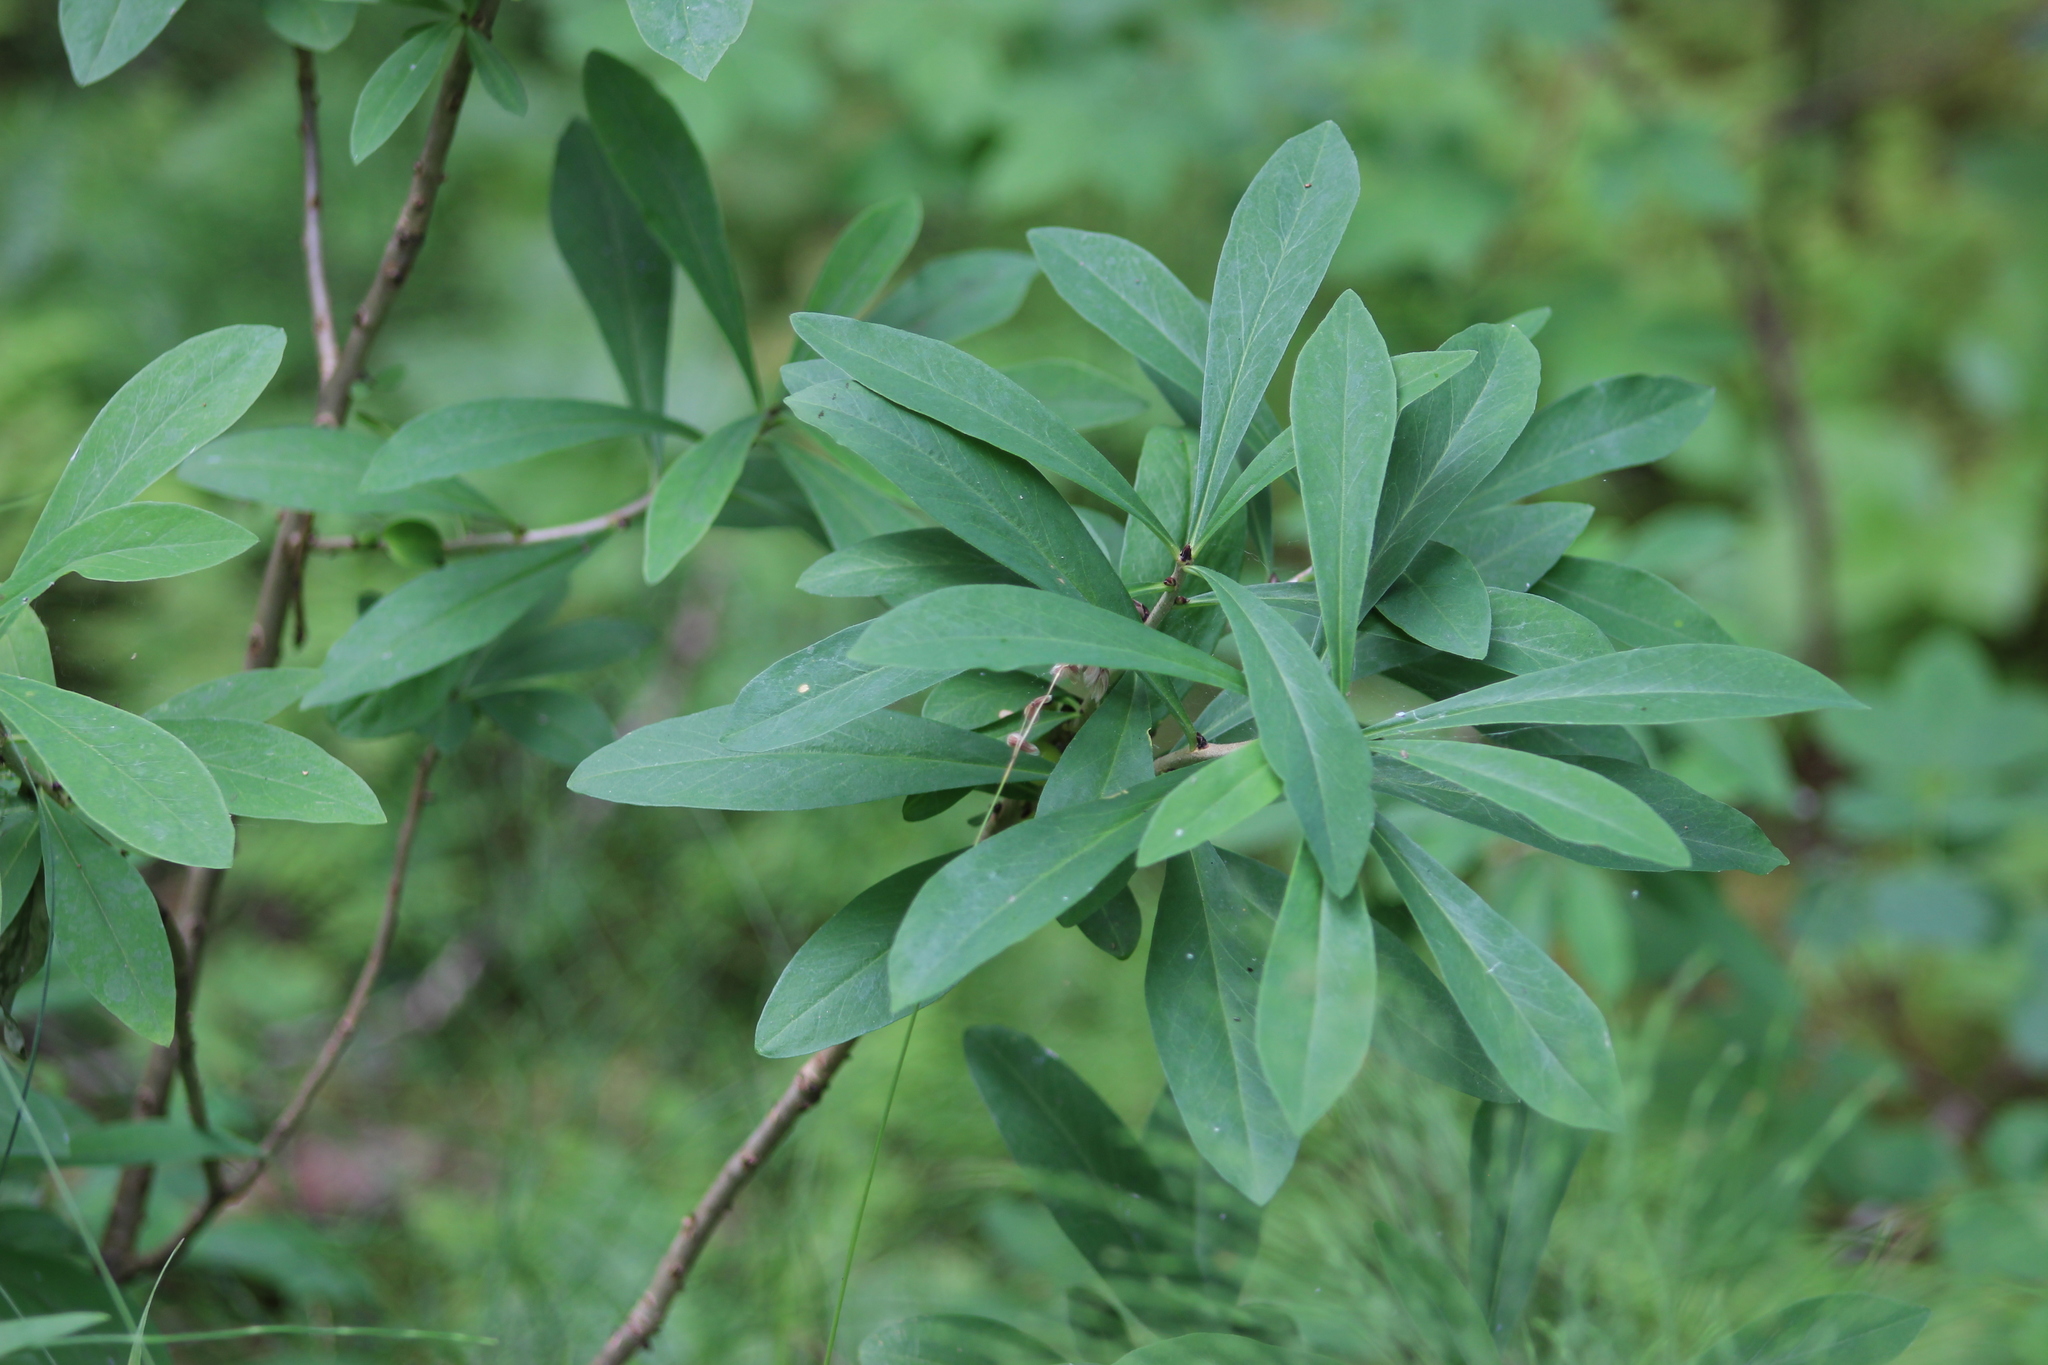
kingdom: Plantae
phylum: Tracheophyta
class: Magnoliopsida
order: Malvales
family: Thymelaeaceae
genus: Daphne
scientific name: Daphne mezereum
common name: Mezereon
